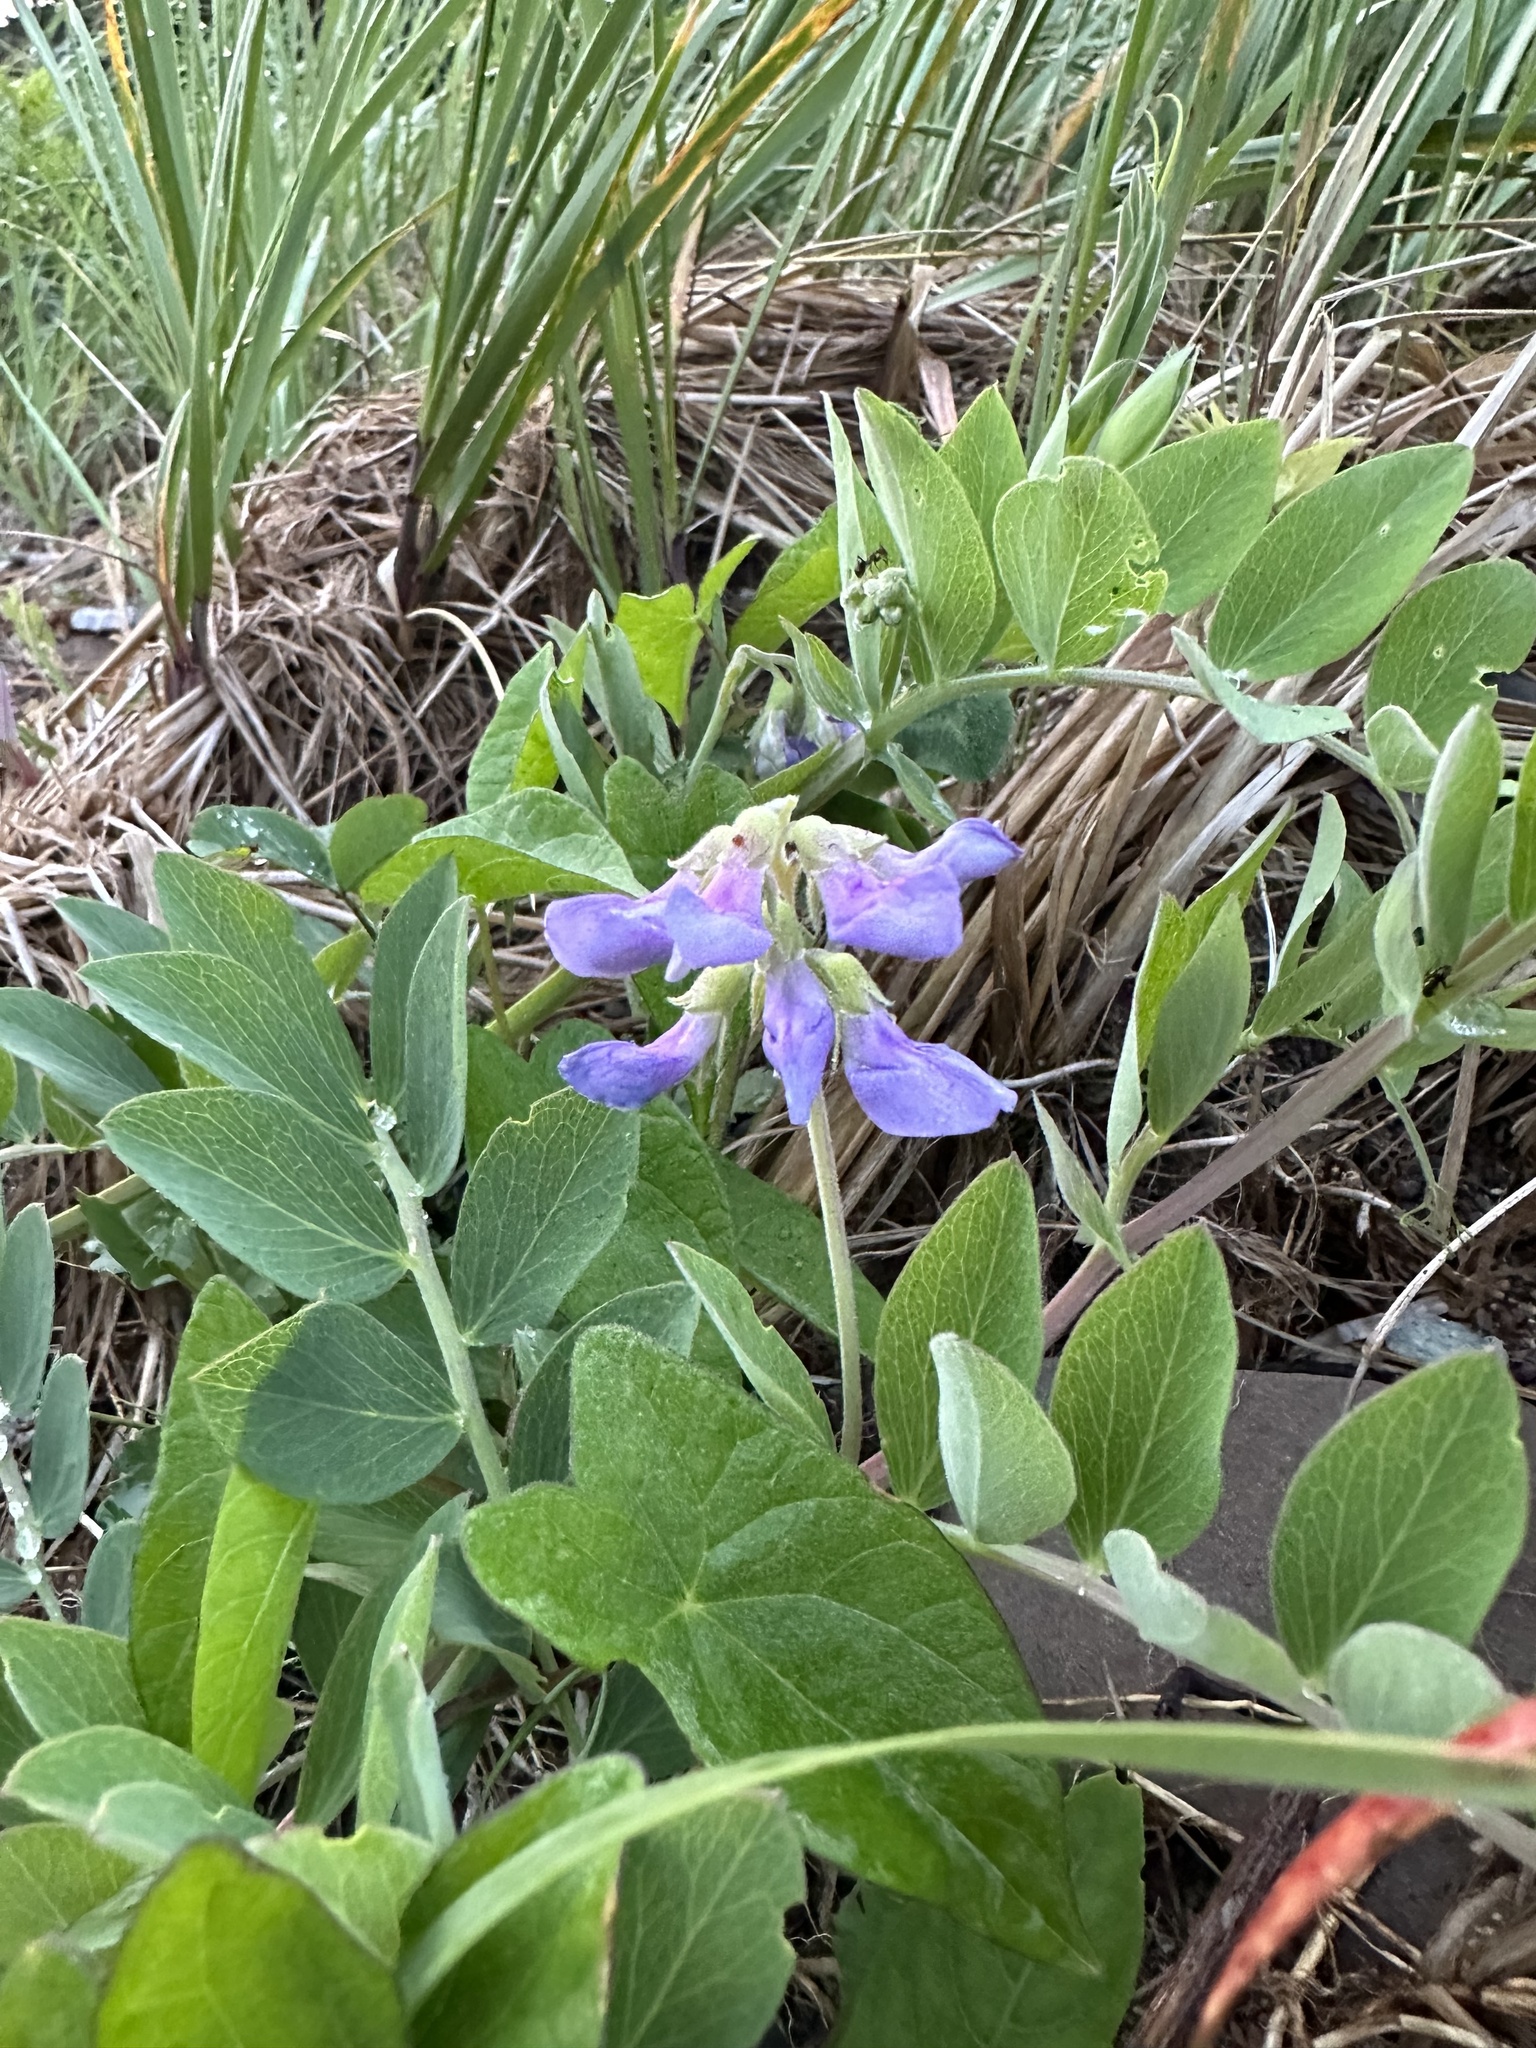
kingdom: Plantae
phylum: Tracheophyta
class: Magnoliopsida
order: Fabales
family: Fabaceae
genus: Lathyrus
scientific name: Lathyrus japonicus
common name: Sea pea
